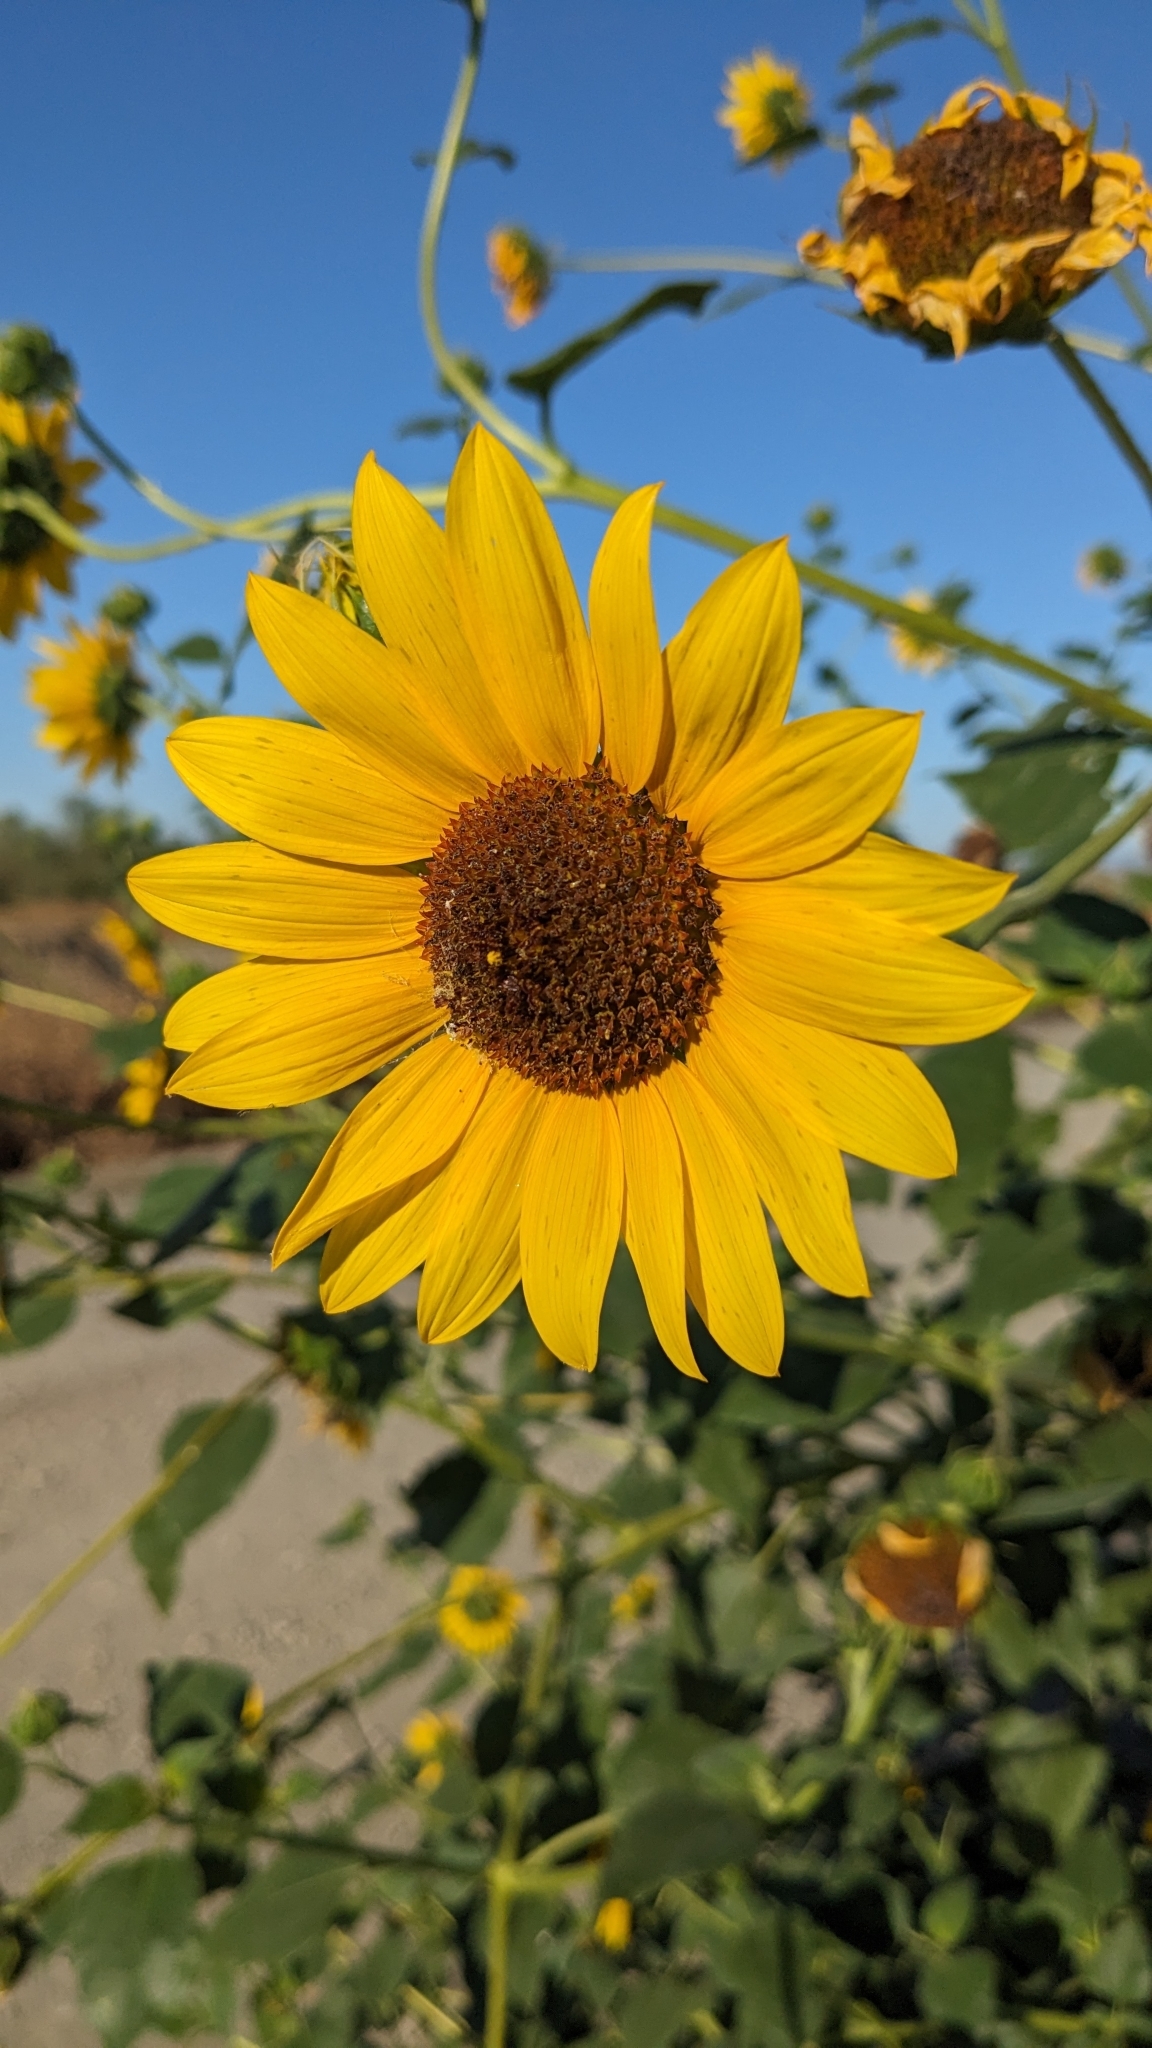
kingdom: Plantae
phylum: Tracheophyta
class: Magnoliopsida
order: Asterales
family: Asteraceae
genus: Helianthus
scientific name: Helianthus annuus
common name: Sunflower
